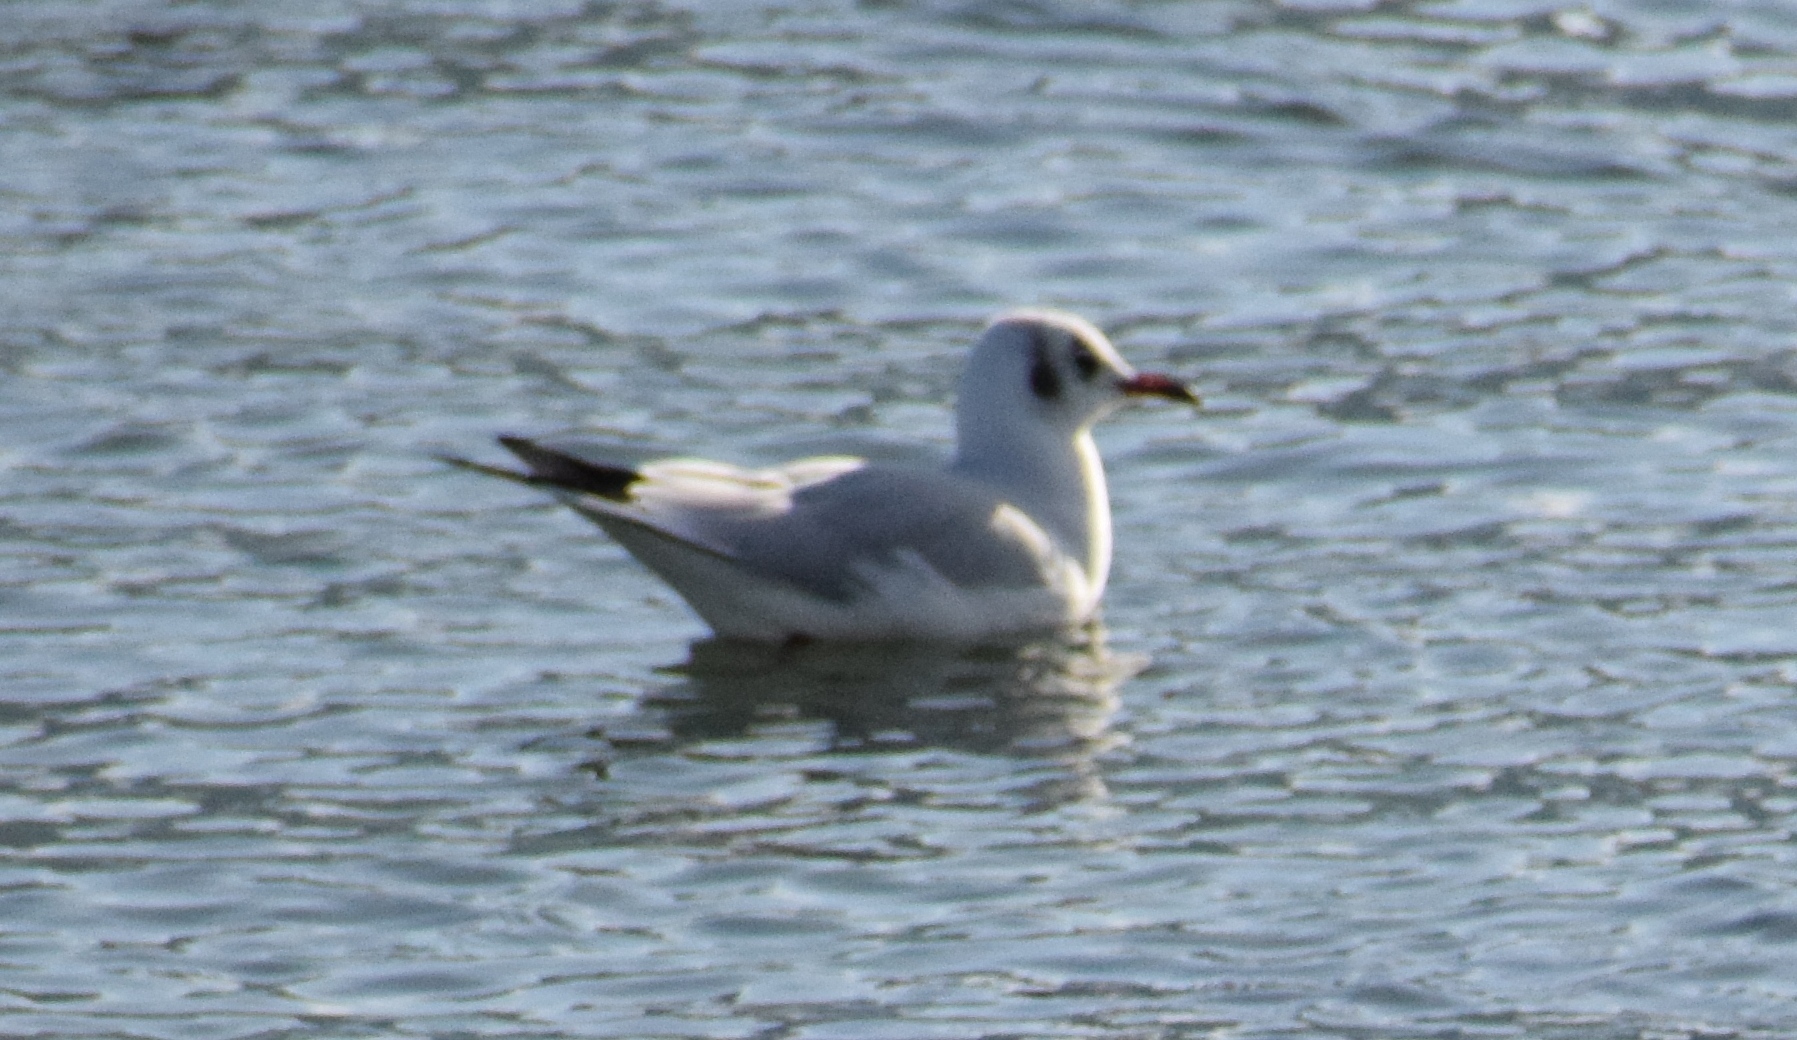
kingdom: Animalia
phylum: Chordata
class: Aves
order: Charadriiformes
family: Laridae
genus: Chroicocephalus
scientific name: Chroicocephalus ridibundus
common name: Black-headed gull
